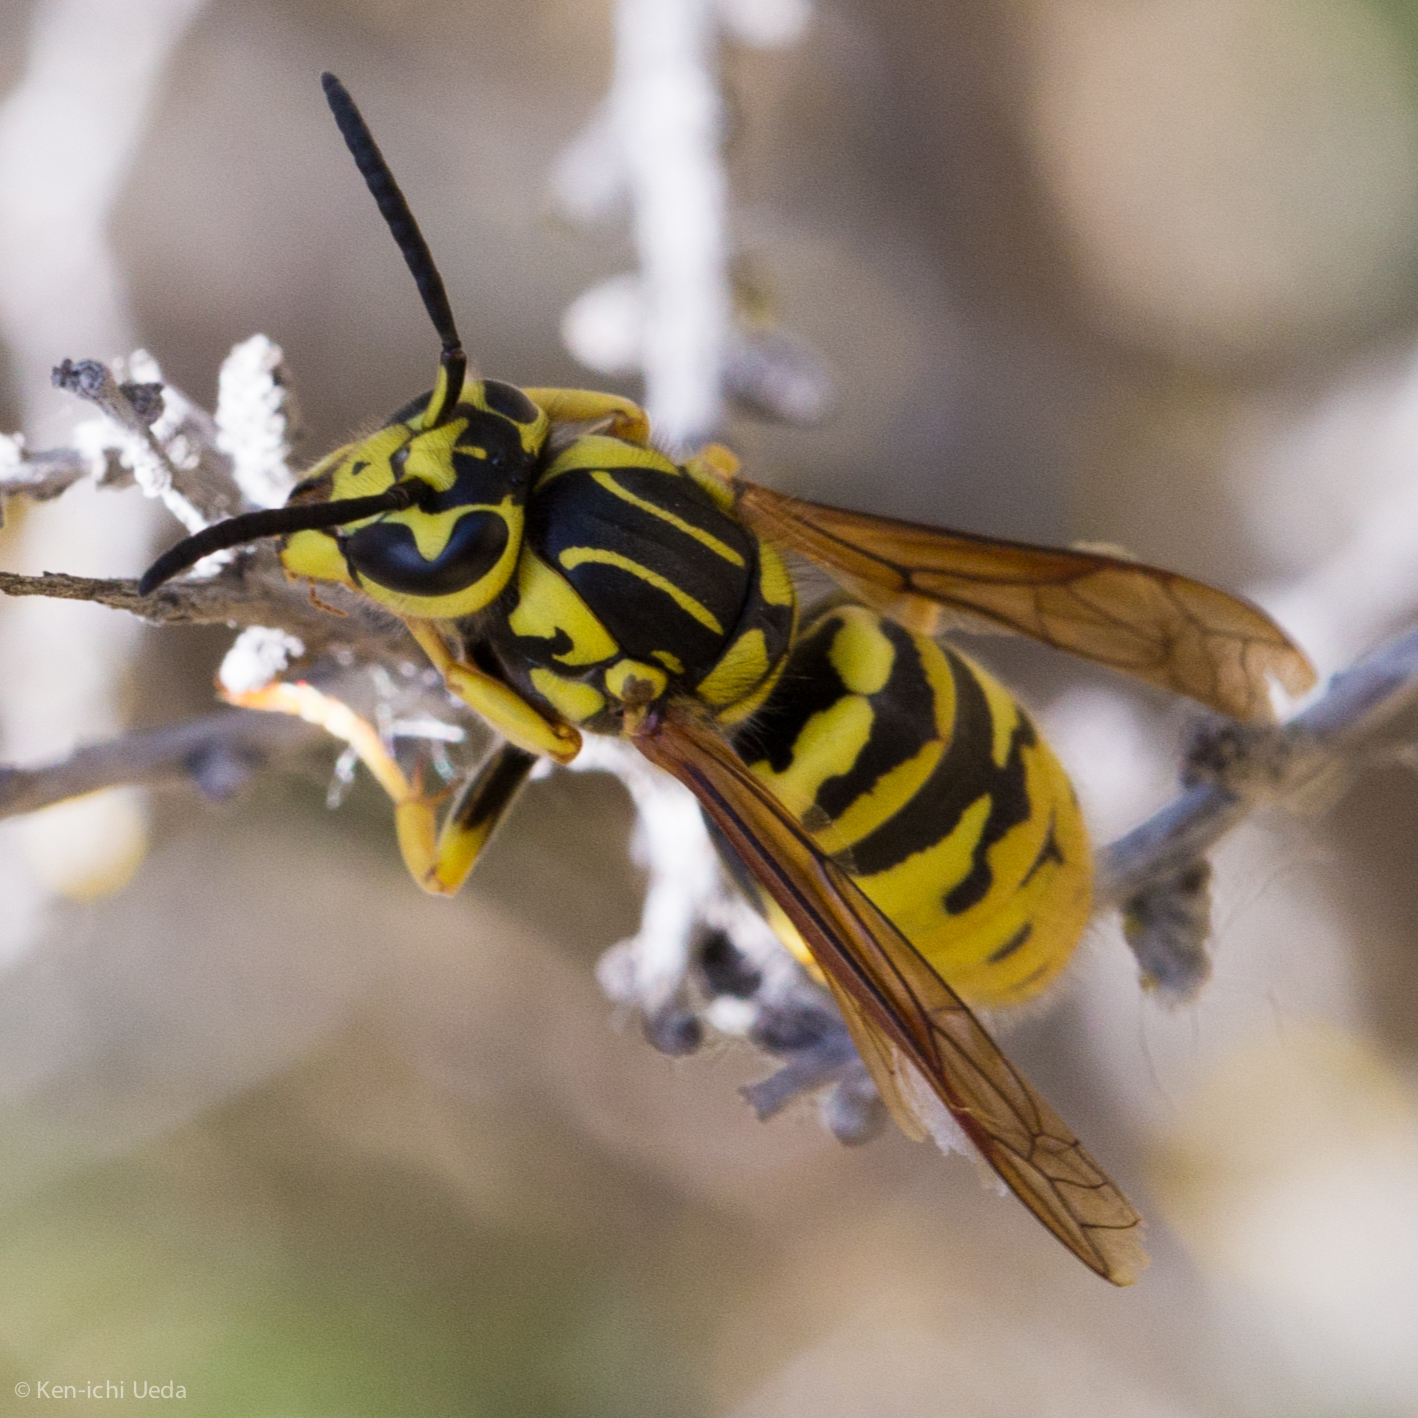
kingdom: Animalia
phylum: Arthropoda
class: Insecta
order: Hymenoptera
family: Vespidae
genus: Vespula
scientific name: Vespula sulphurea
